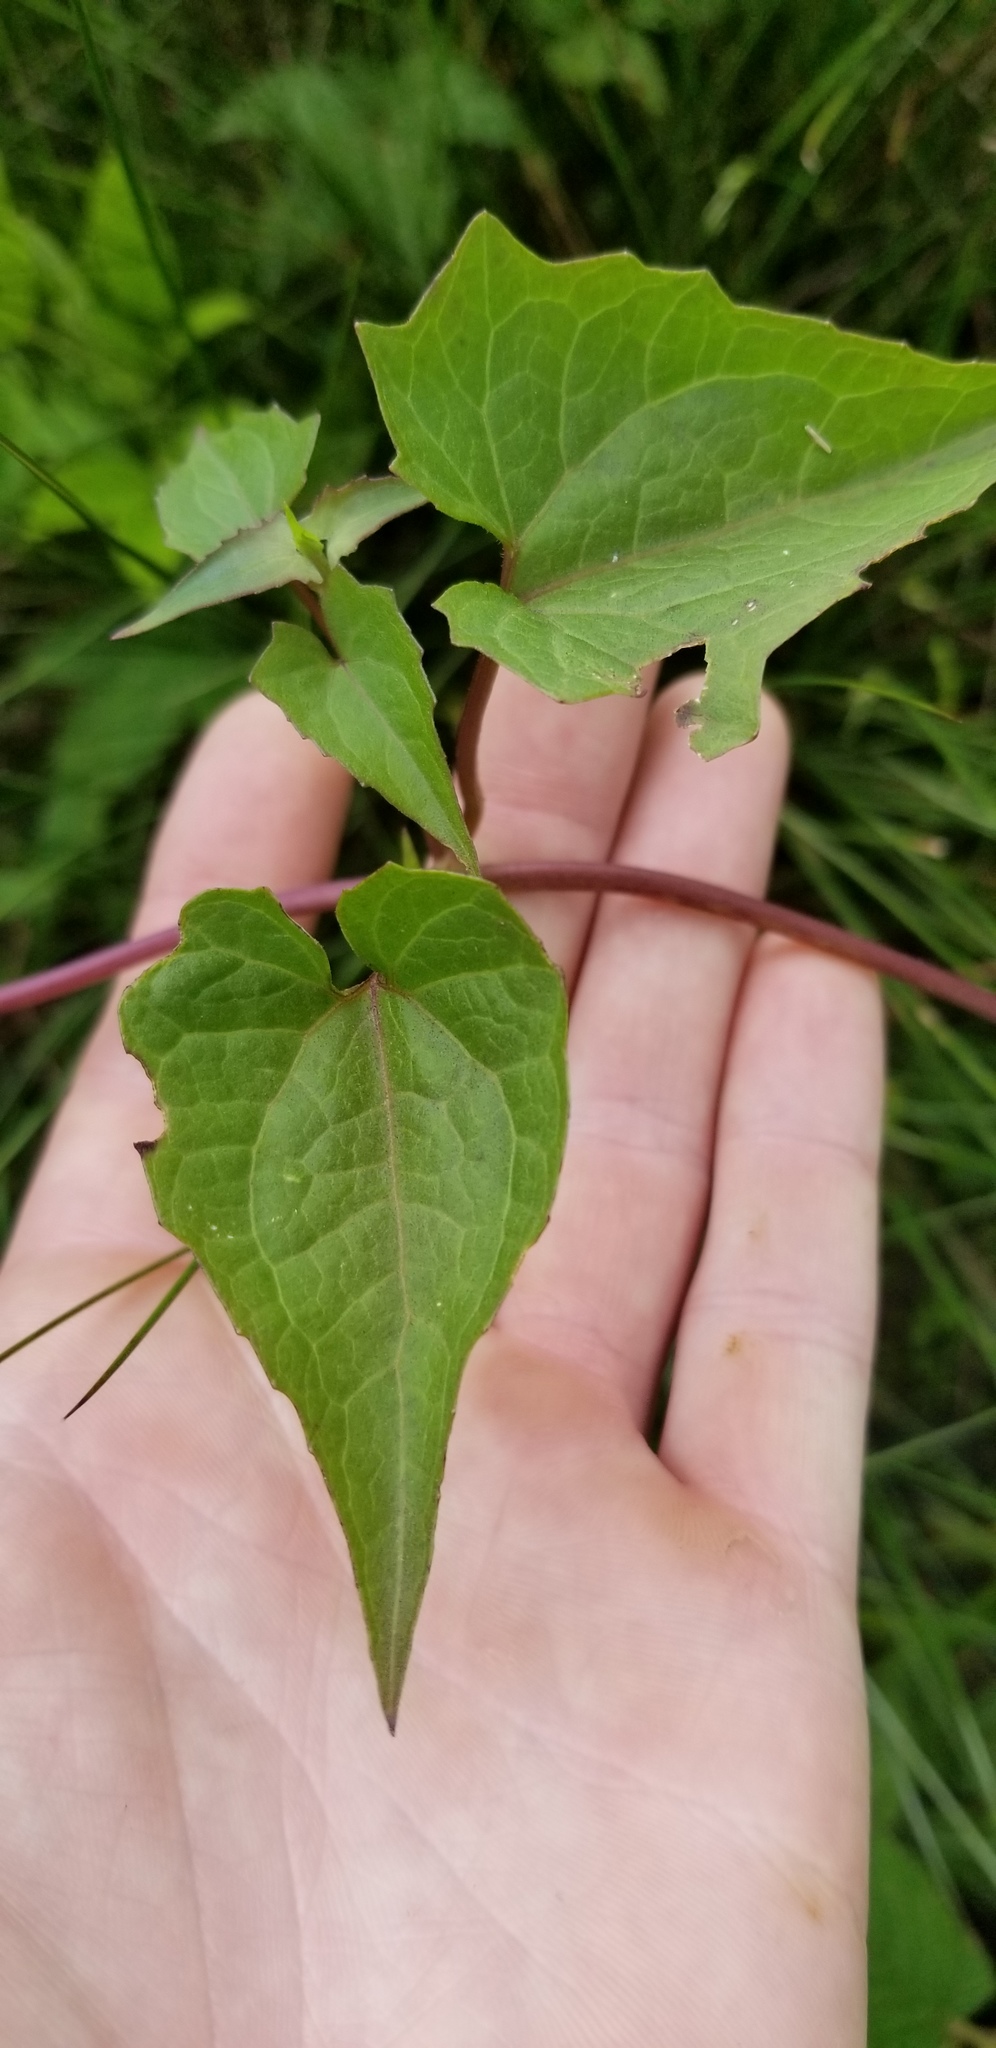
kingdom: Plantae
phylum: Tracheophyta
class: Magnoliopsida
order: Asterales
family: Asteraceae
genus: Mikania
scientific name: Mikania scandens
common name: Climbing hempvine
